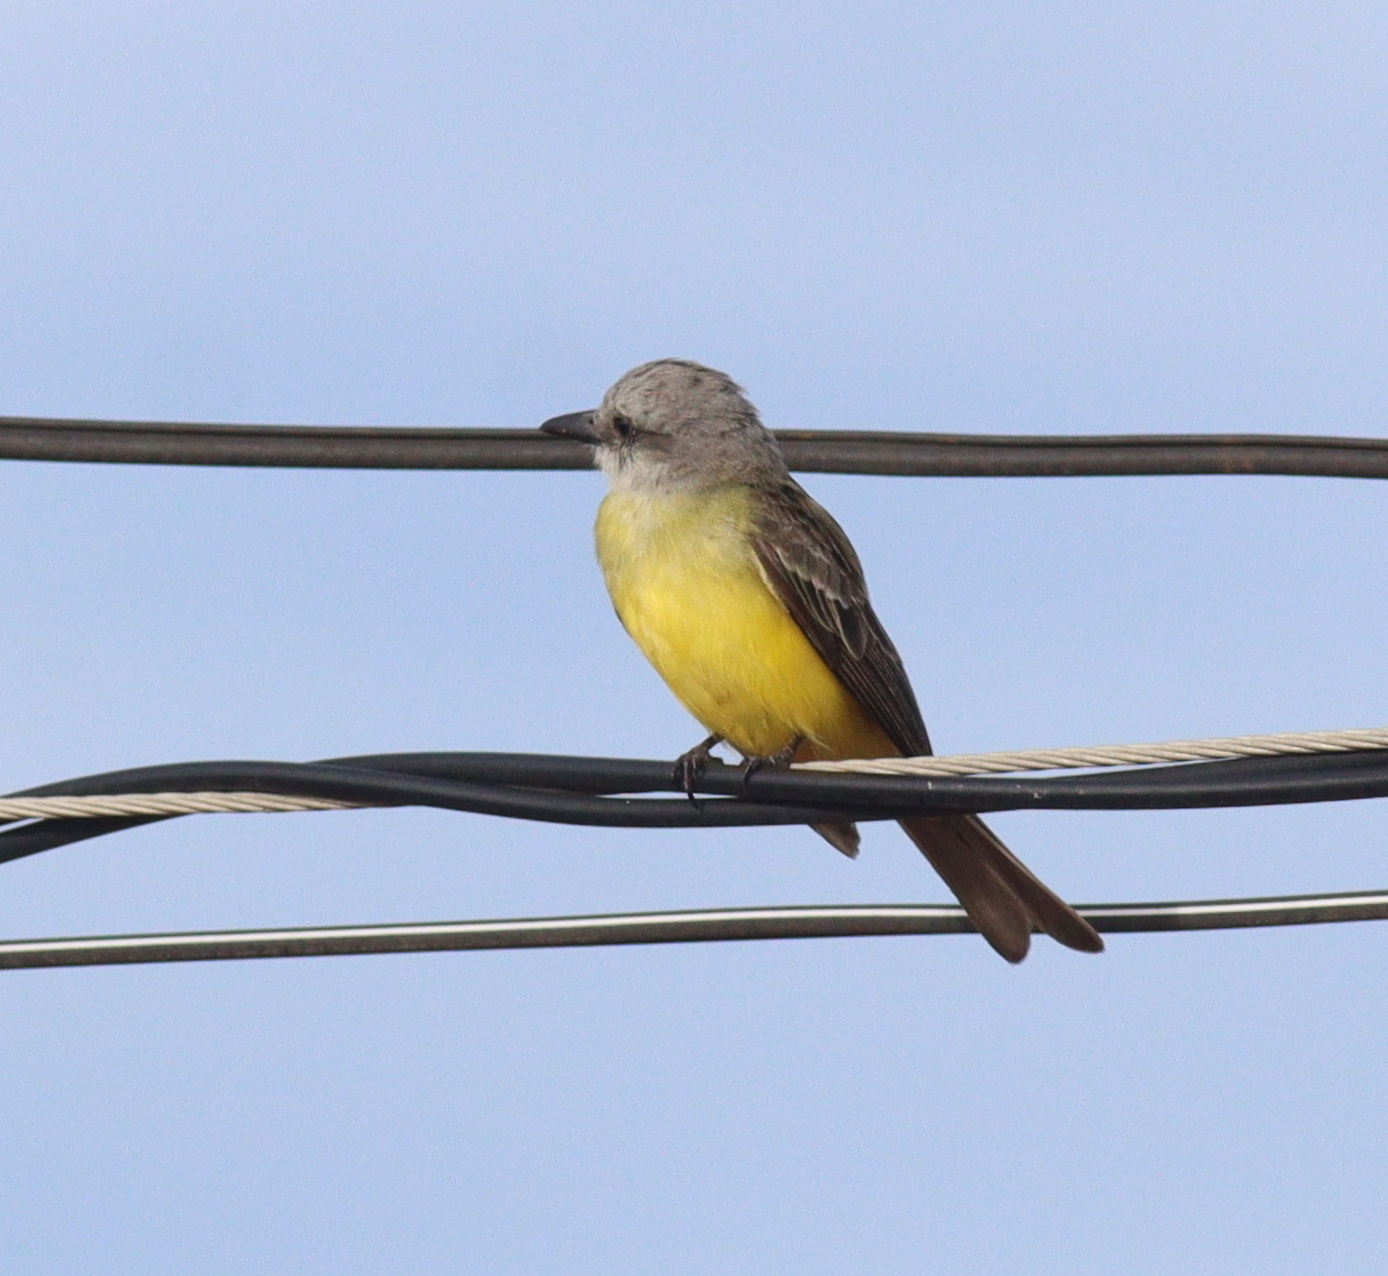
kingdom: Animalia
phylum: Chordata
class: Aves
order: Passeriformes
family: Tyrannidae
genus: Tyrannus
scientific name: Tyrannus melancholicus
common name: Tropical kingbird
